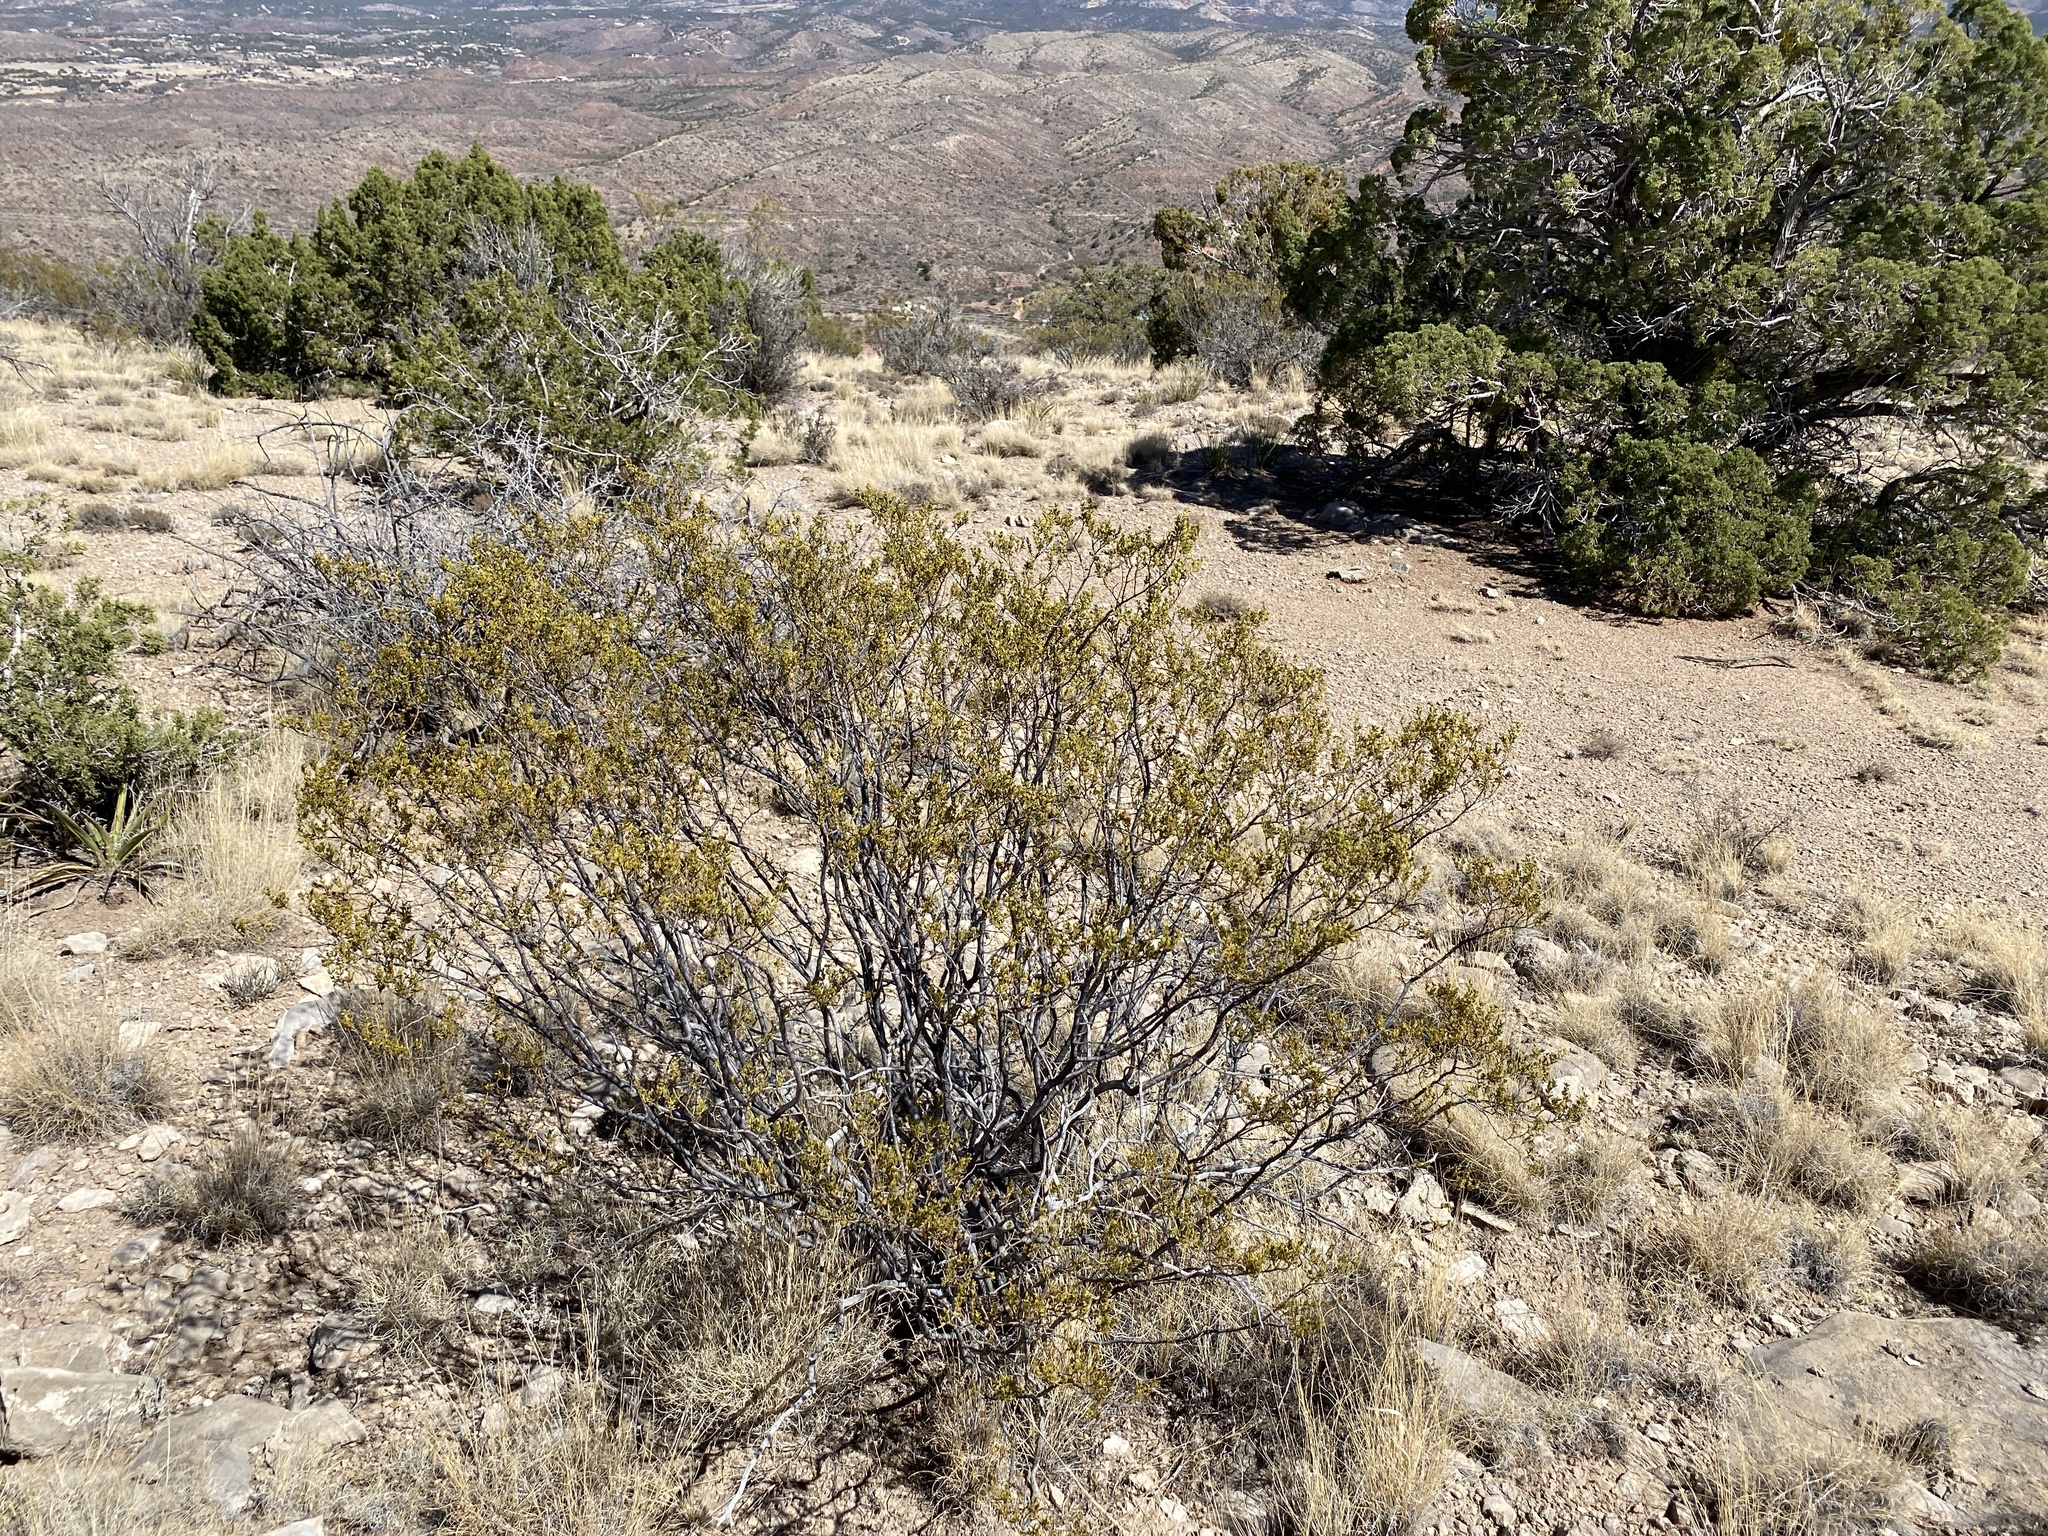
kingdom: Plantae
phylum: Tracheophyta
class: Magnoliopsida
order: Zygophyllales
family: Zygophyllaceae
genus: Larrea
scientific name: Larrea tridentata
